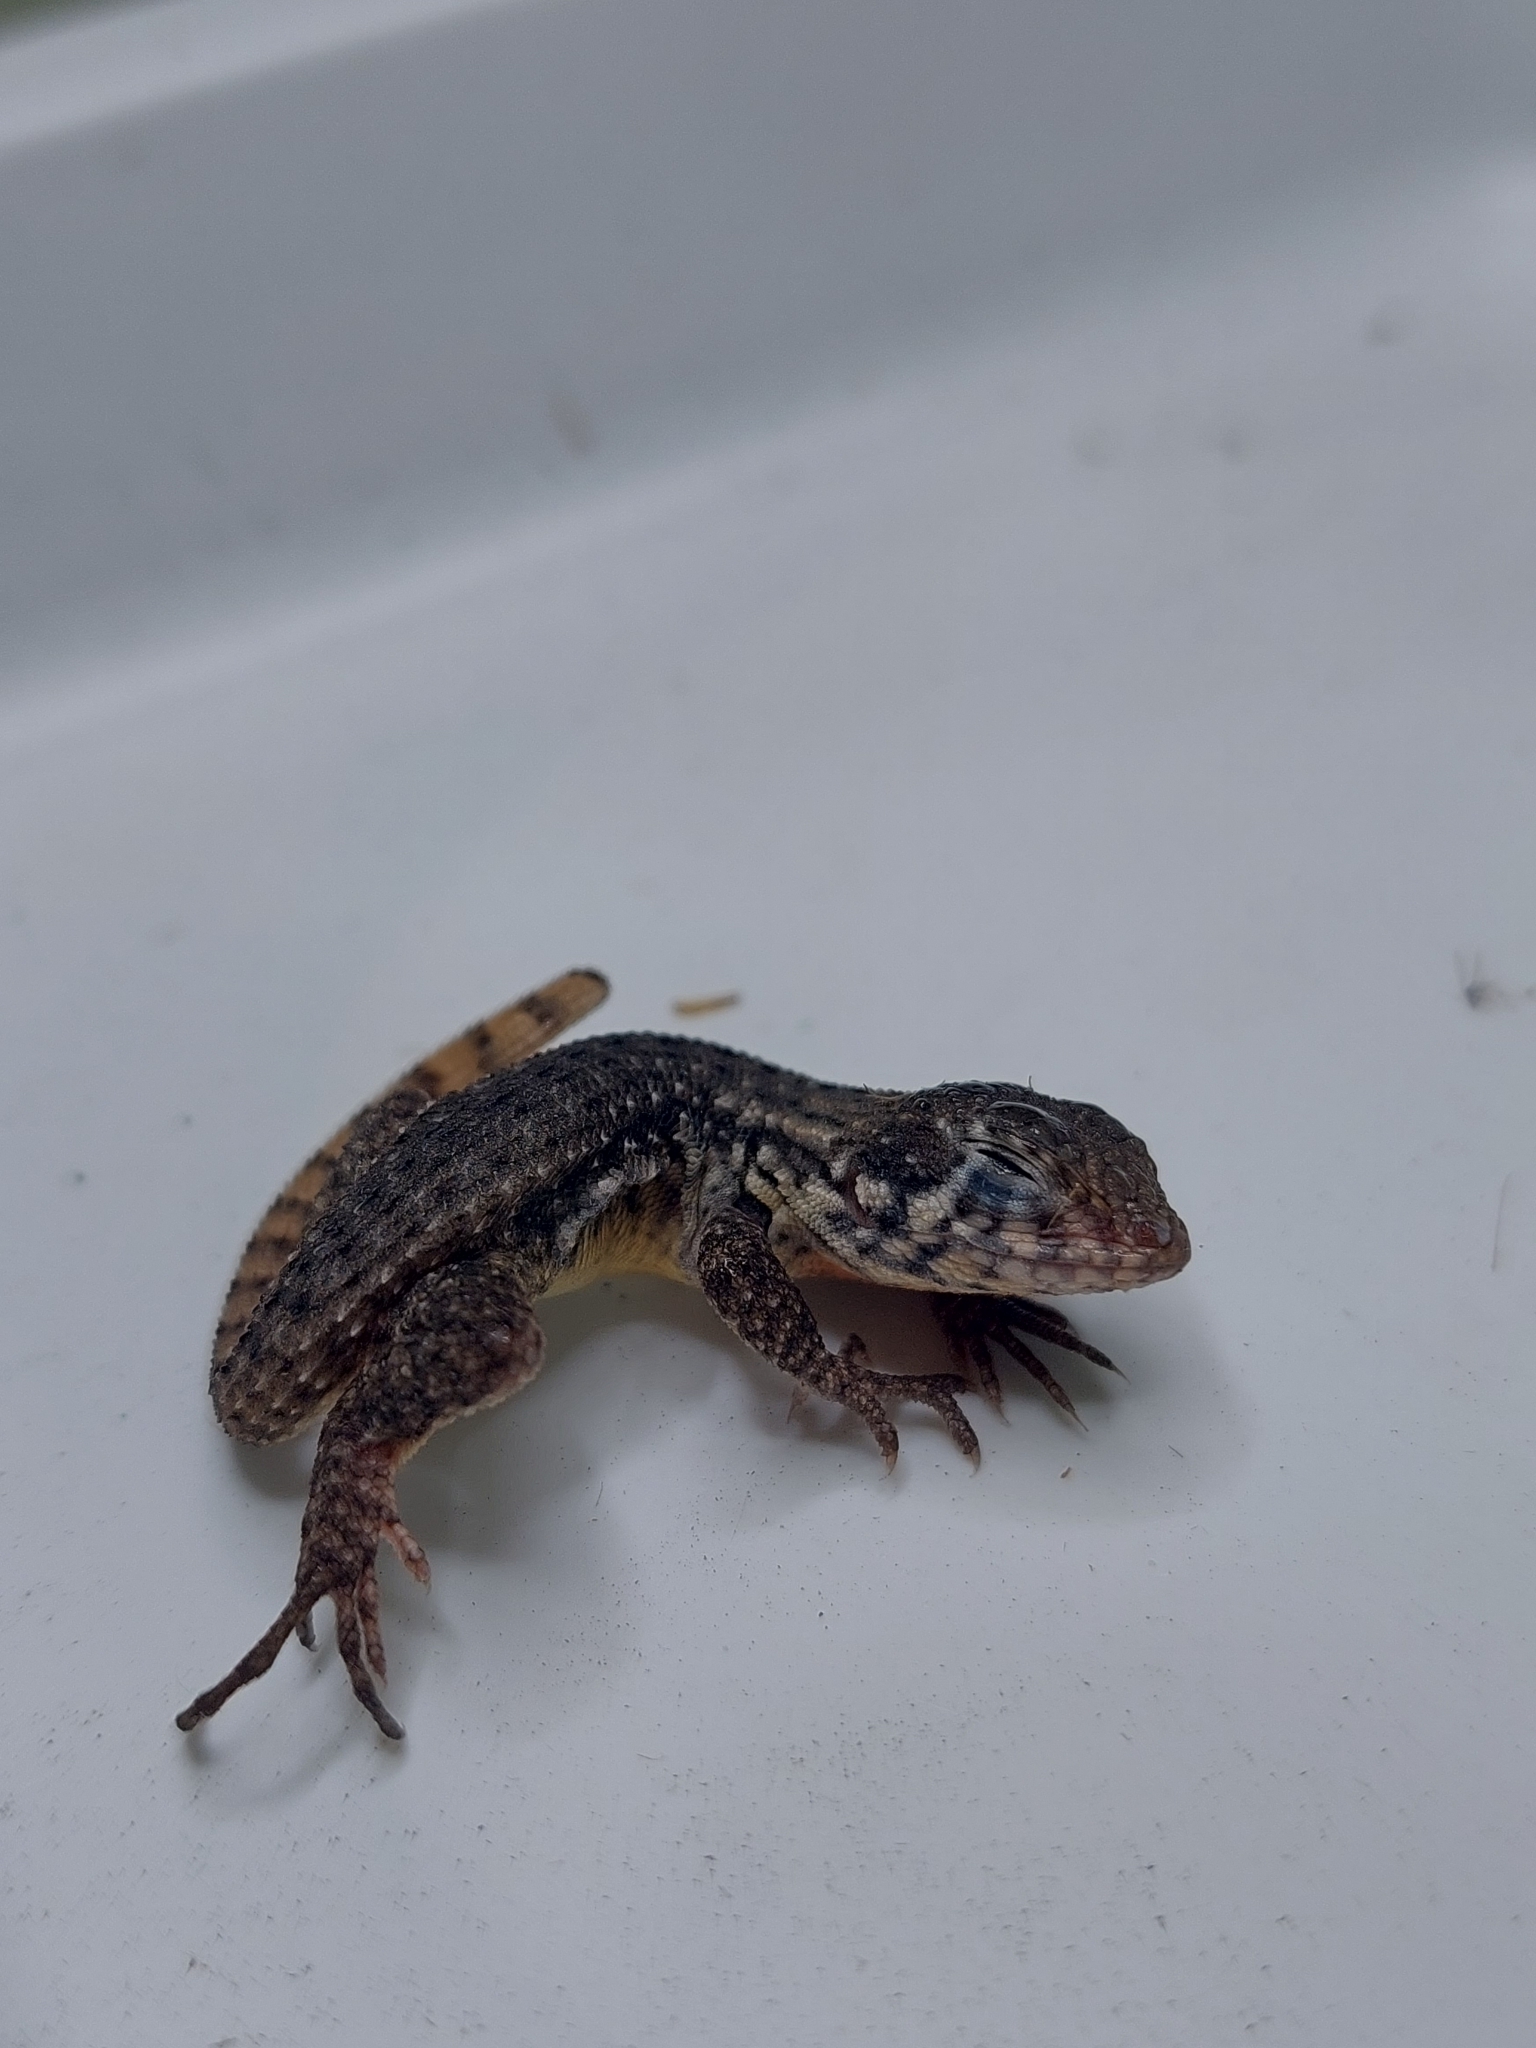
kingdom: Animalia
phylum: Chordata
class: Squamata
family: Leiocephalidae
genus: Leiocephalus
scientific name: Leiocephalus carinatus
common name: Northern curly-tailed lizard
